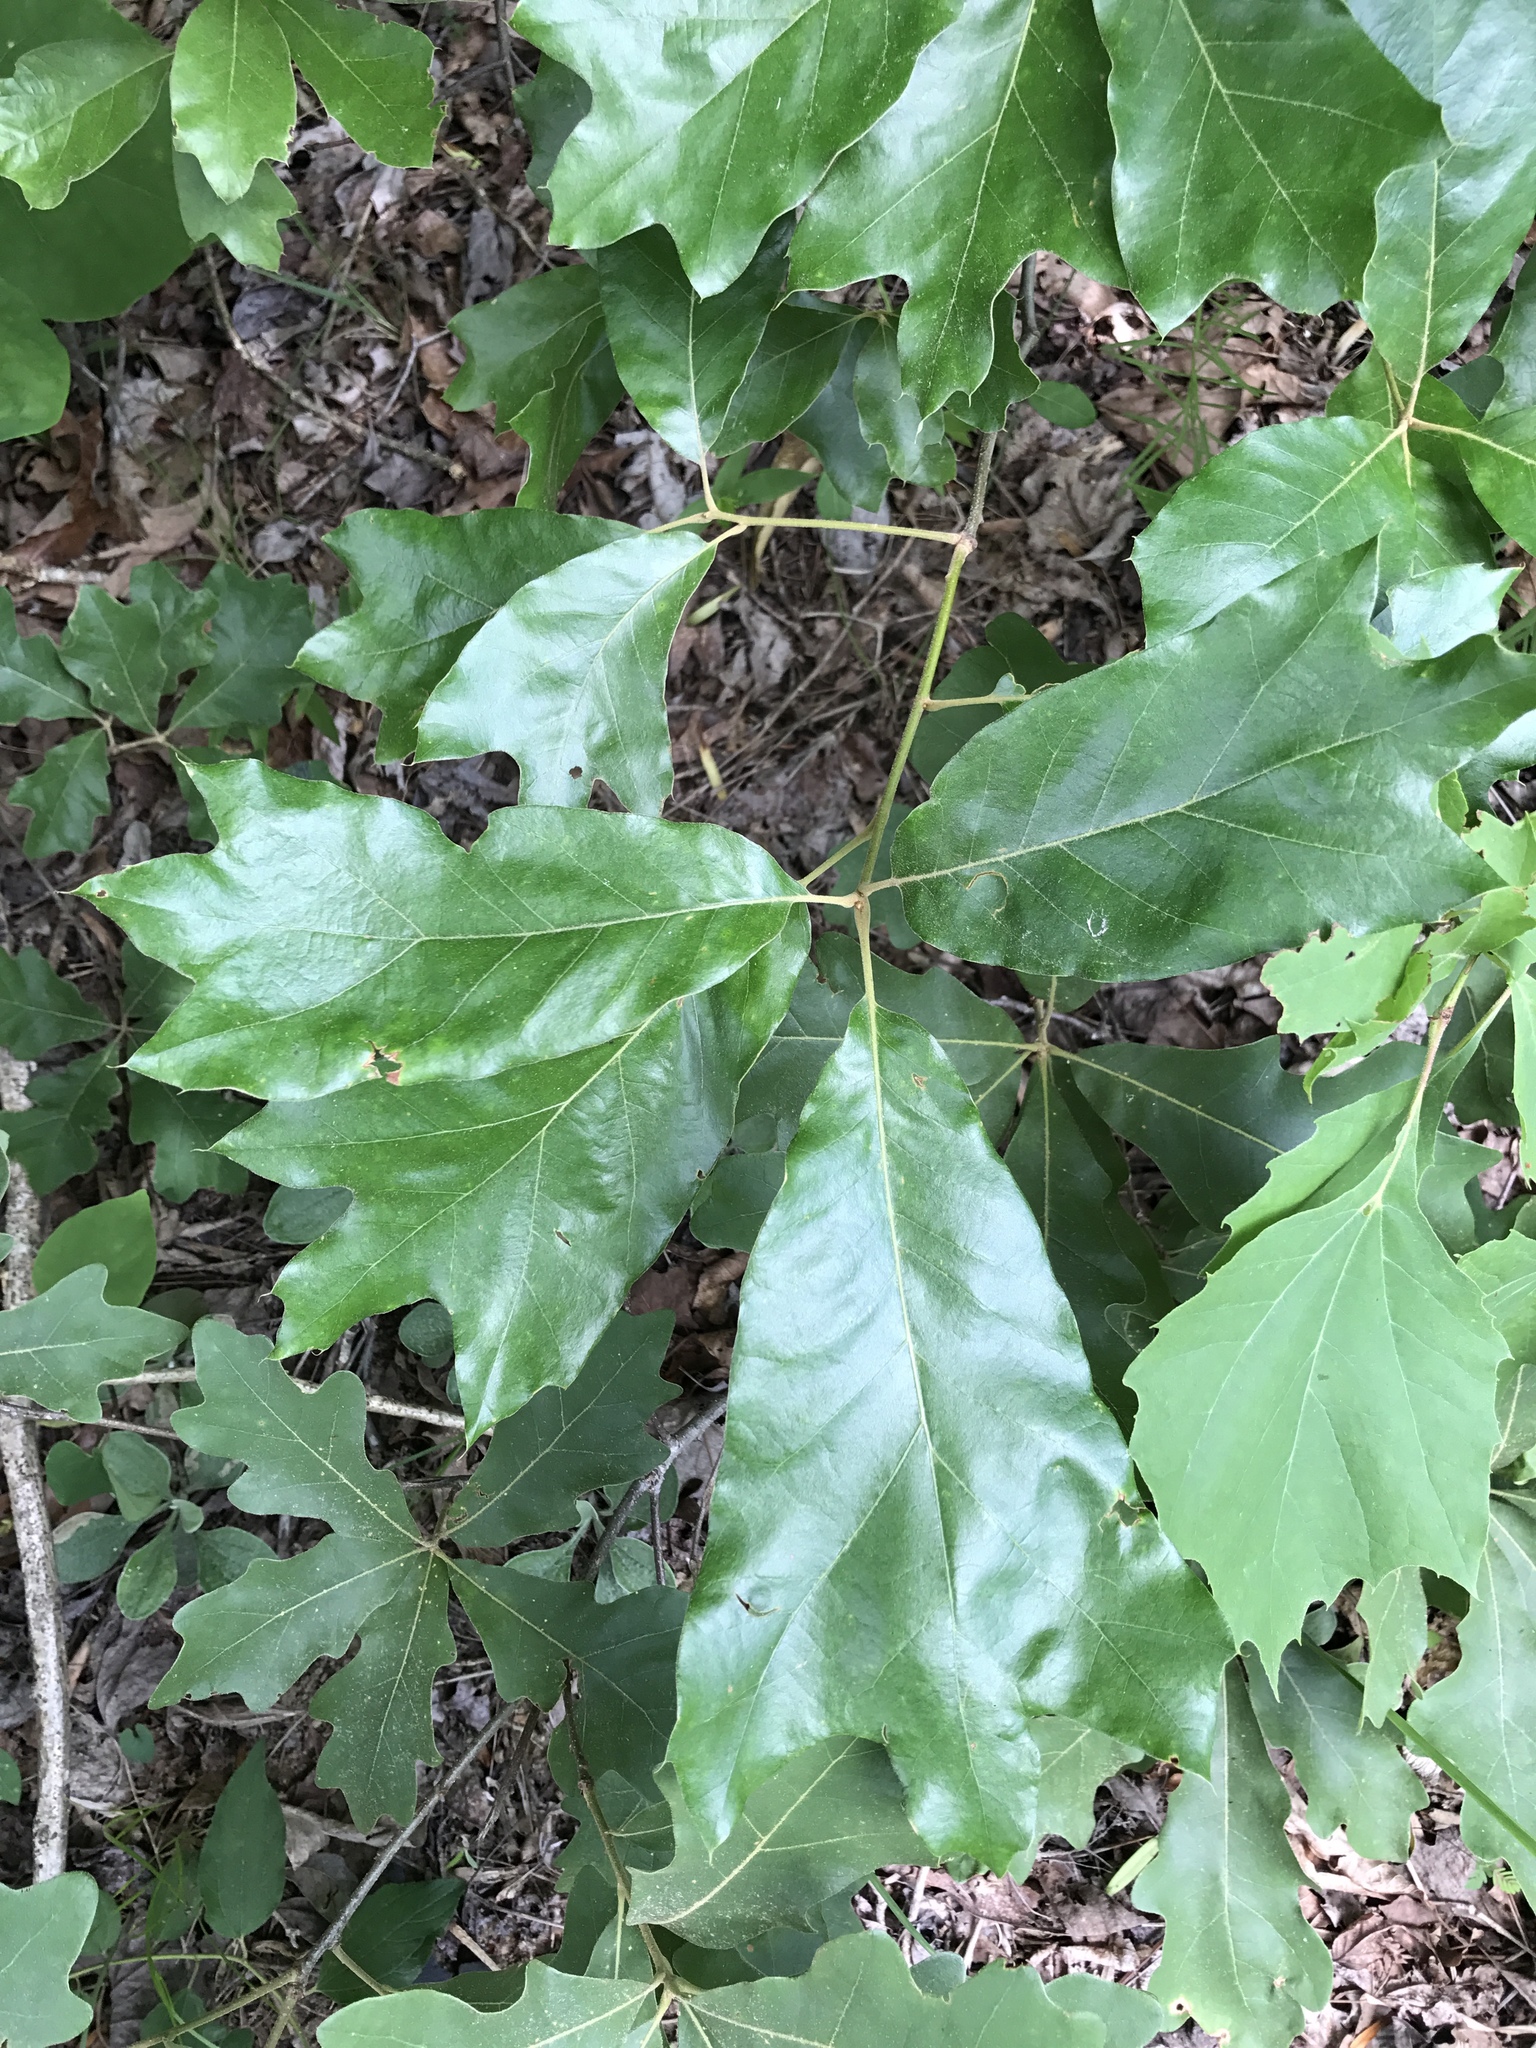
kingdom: Plantae
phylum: Tracheophyta
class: Magnoliopsida
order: Fagales
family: Fagaceae
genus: Quercus
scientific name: Quercus falcata
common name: Southern red oak
